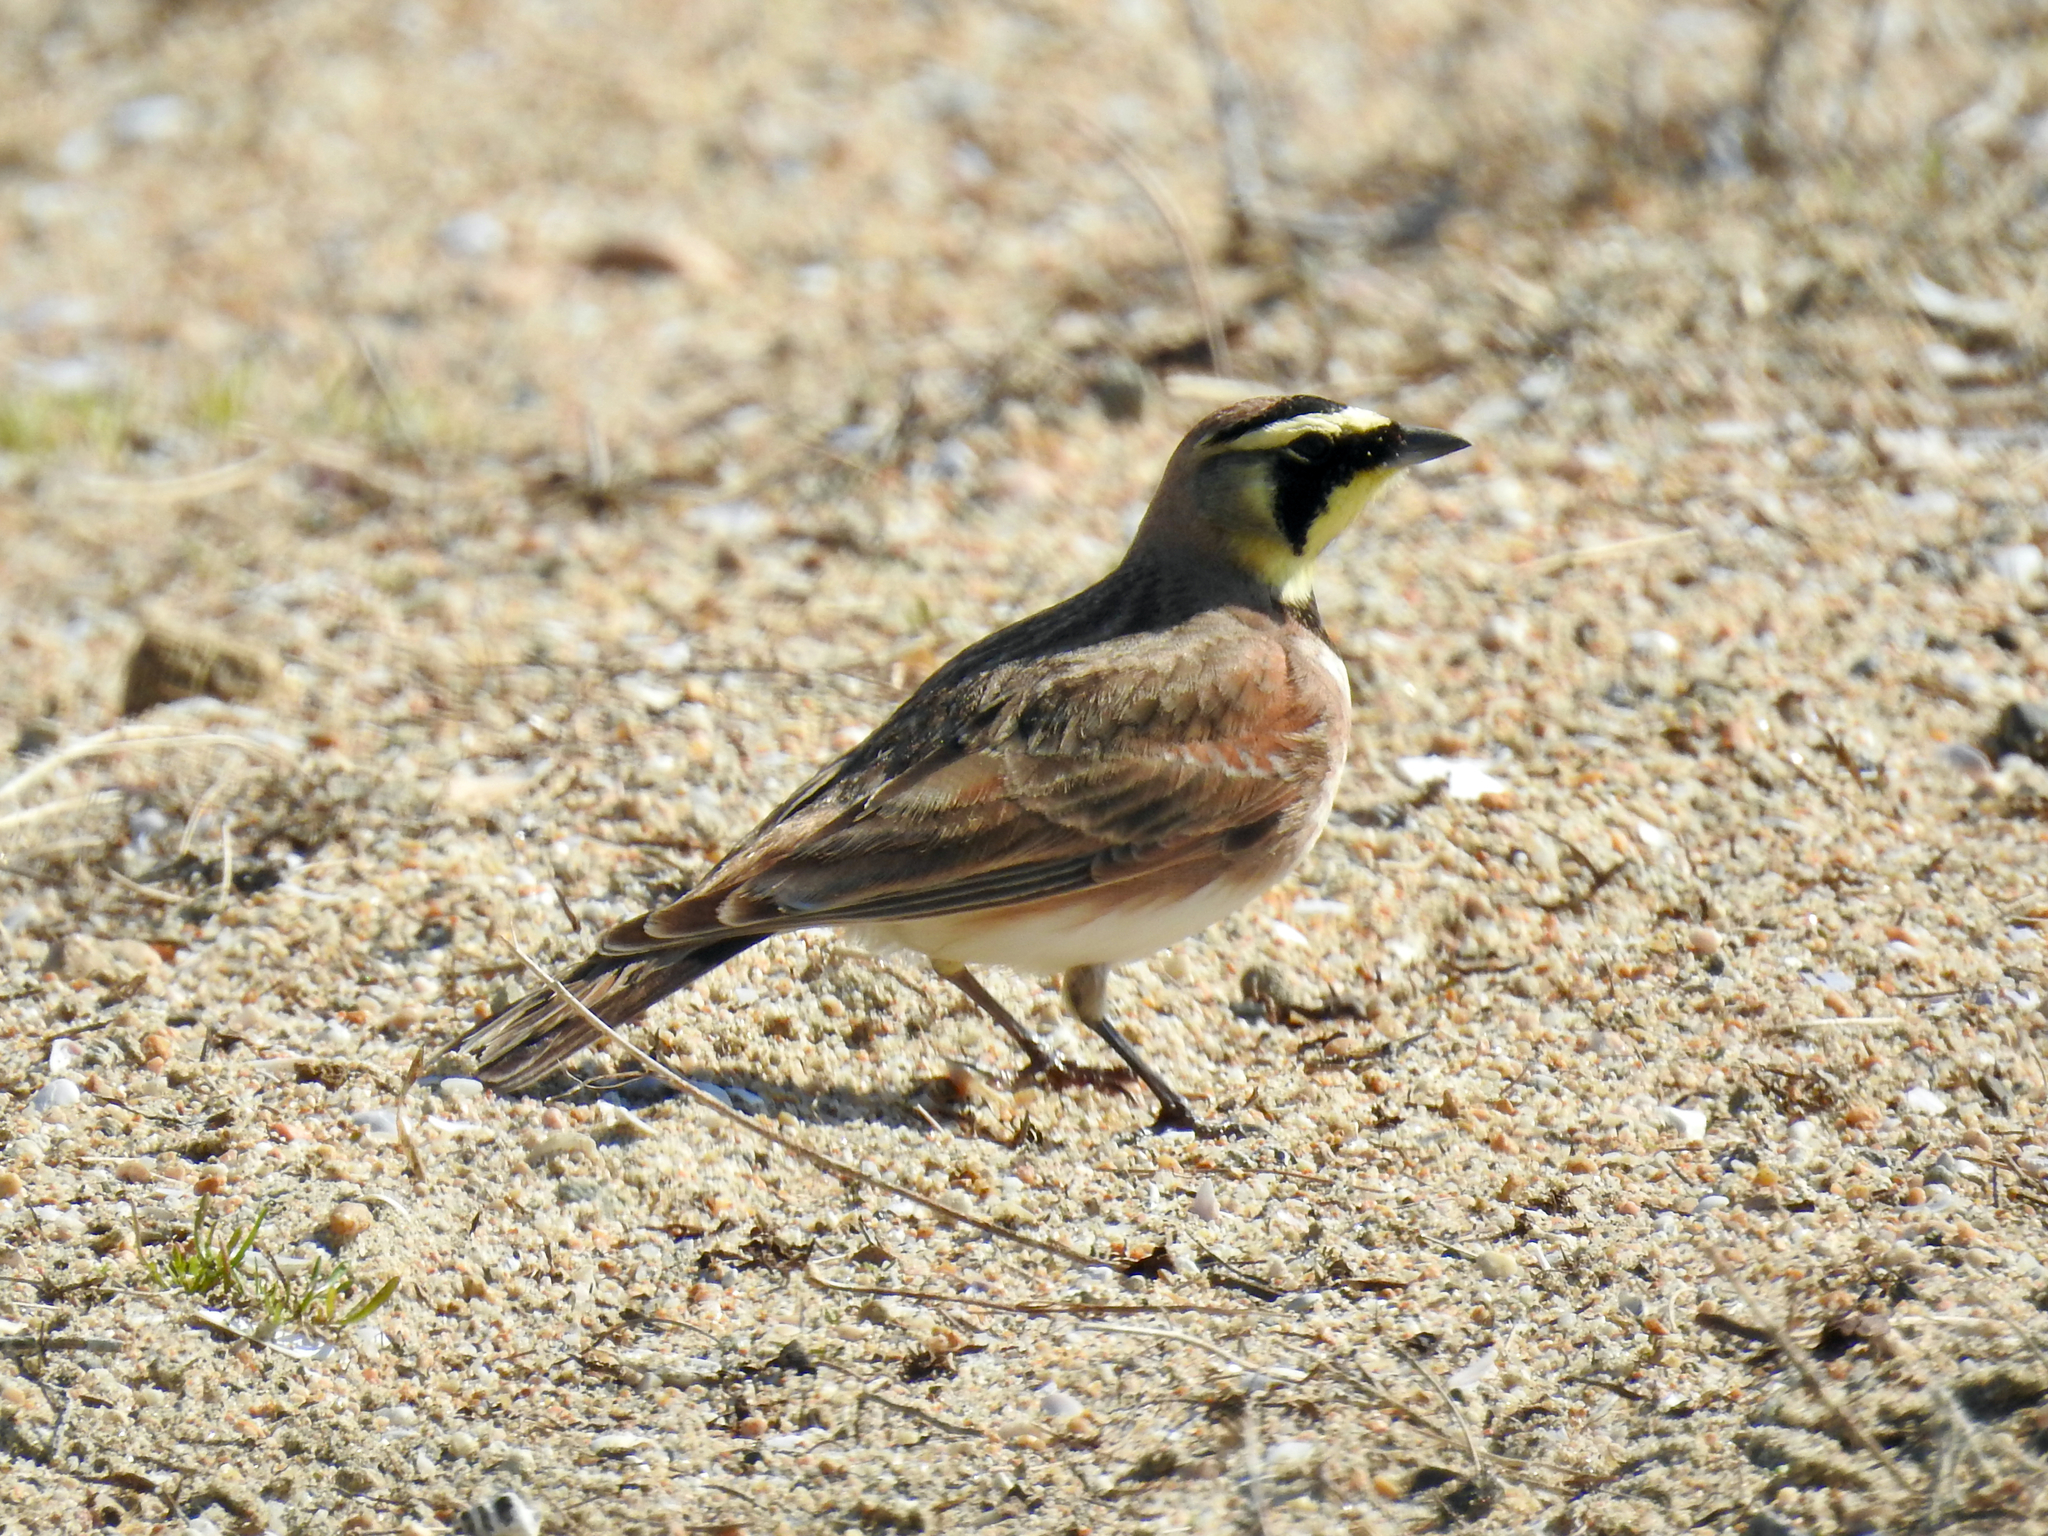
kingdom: Animalia
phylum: Chordata
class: Aves
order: Passeriformes
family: Alaudidae
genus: Eremophila
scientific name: Eremophila alpestris
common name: Horned lark
